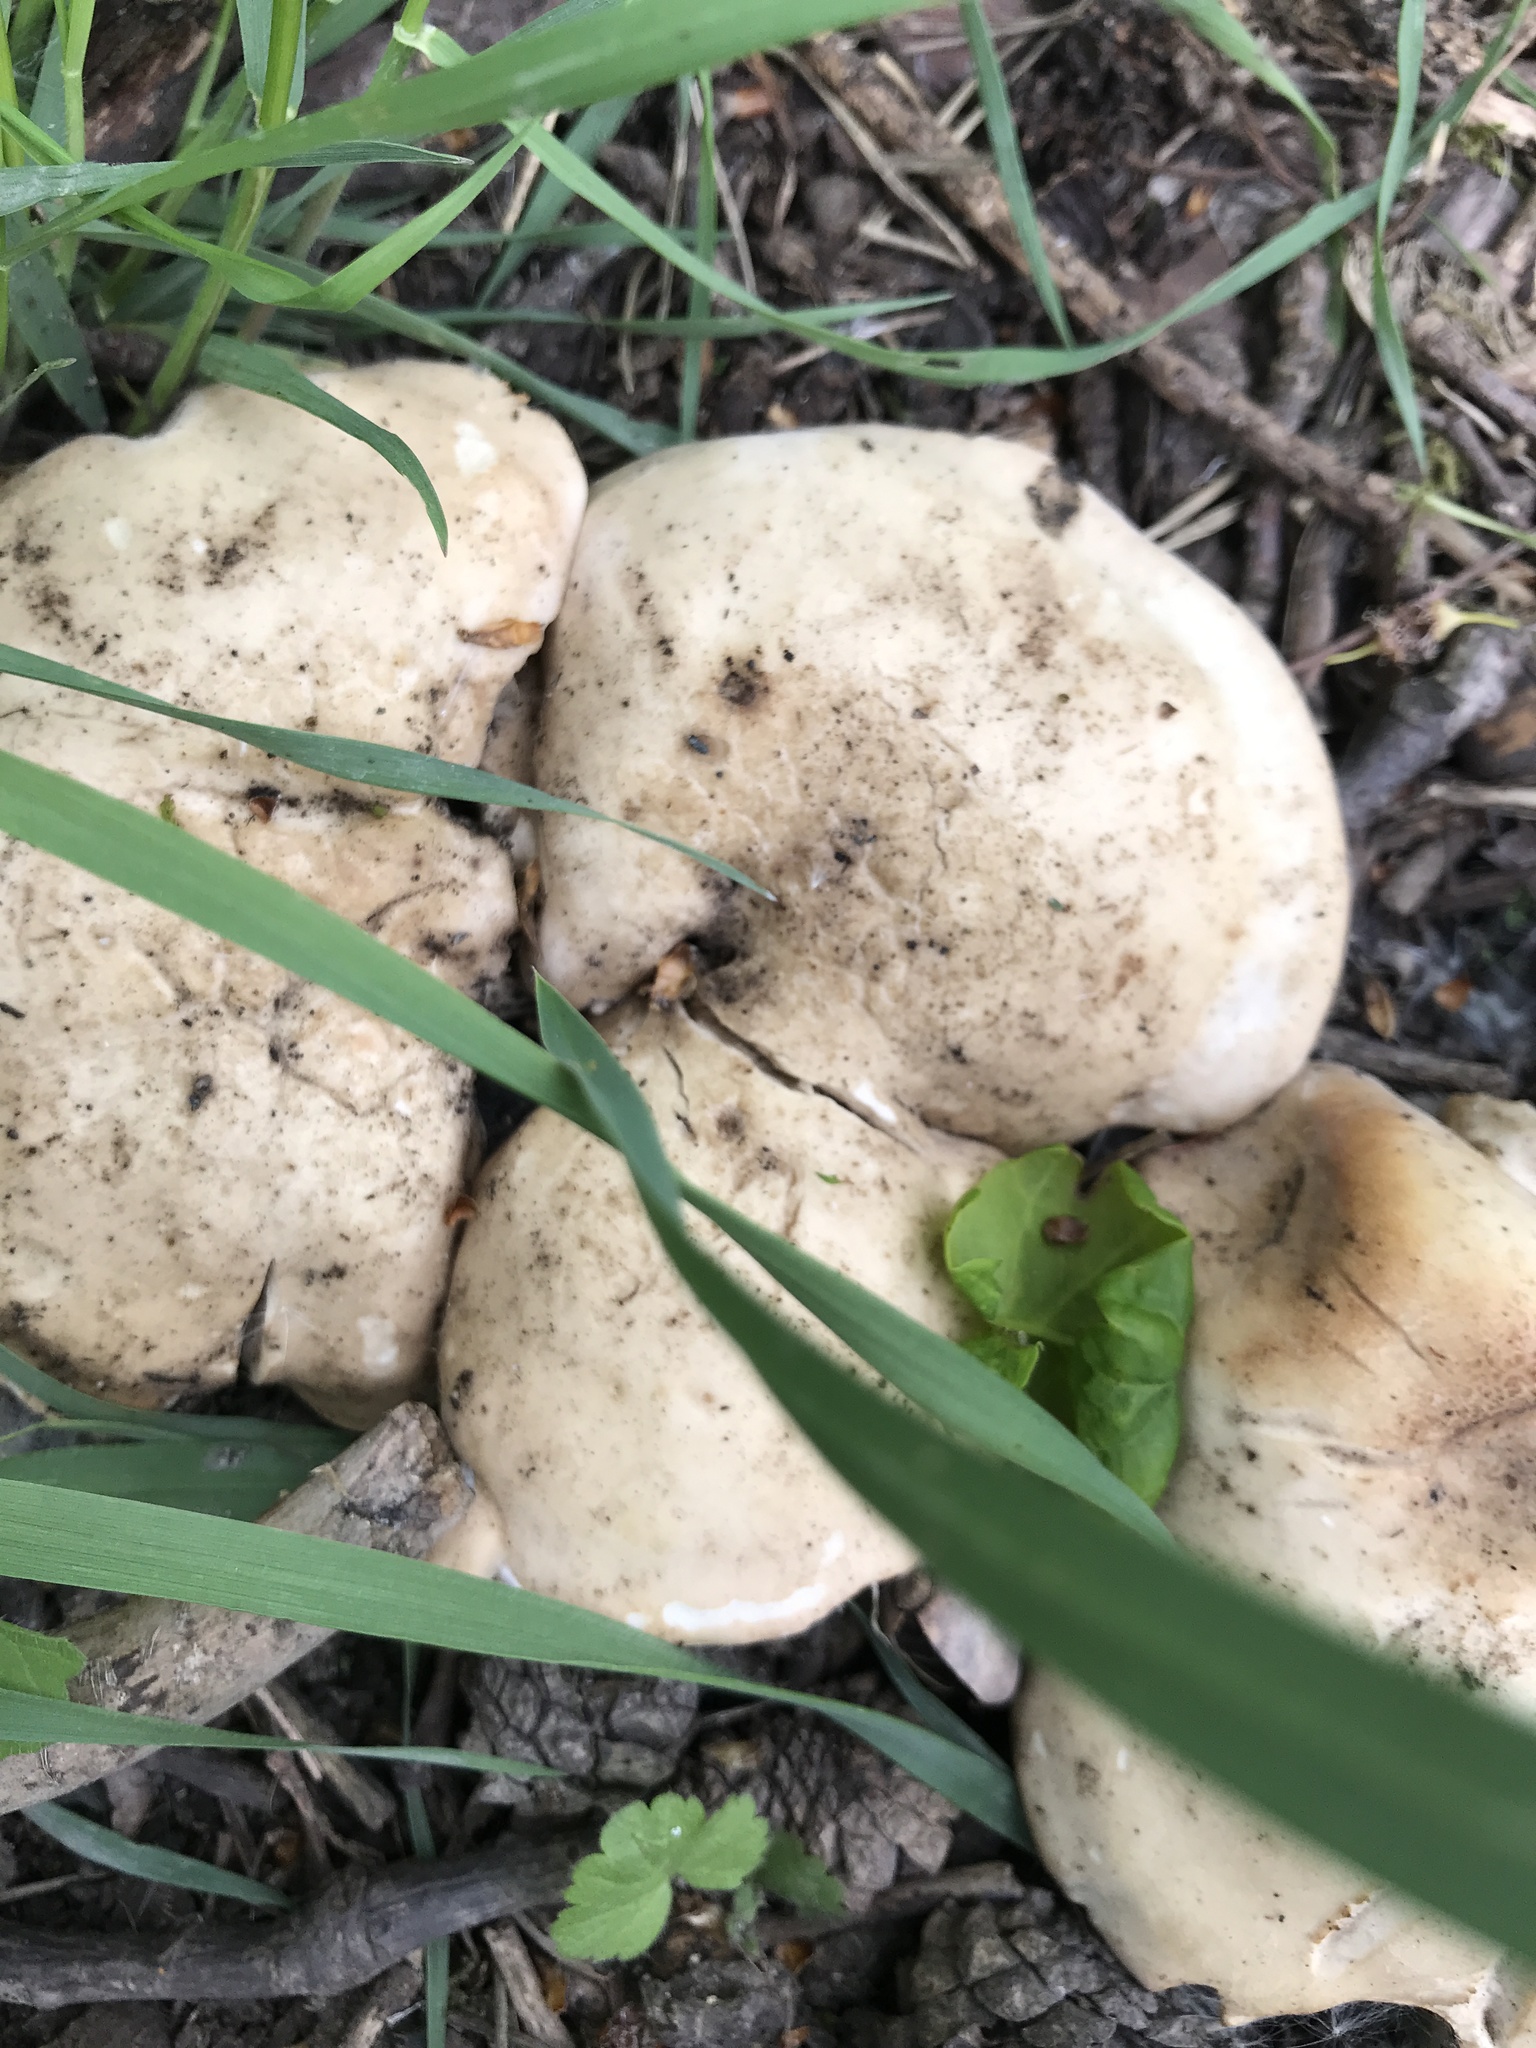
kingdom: Fungi
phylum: Basidiomycota
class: Agaricomycetes
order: Agaricales
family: Lyophyllaceae
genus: Calocybe
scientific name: Calocybe gambosa
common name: St. george's mushroom
